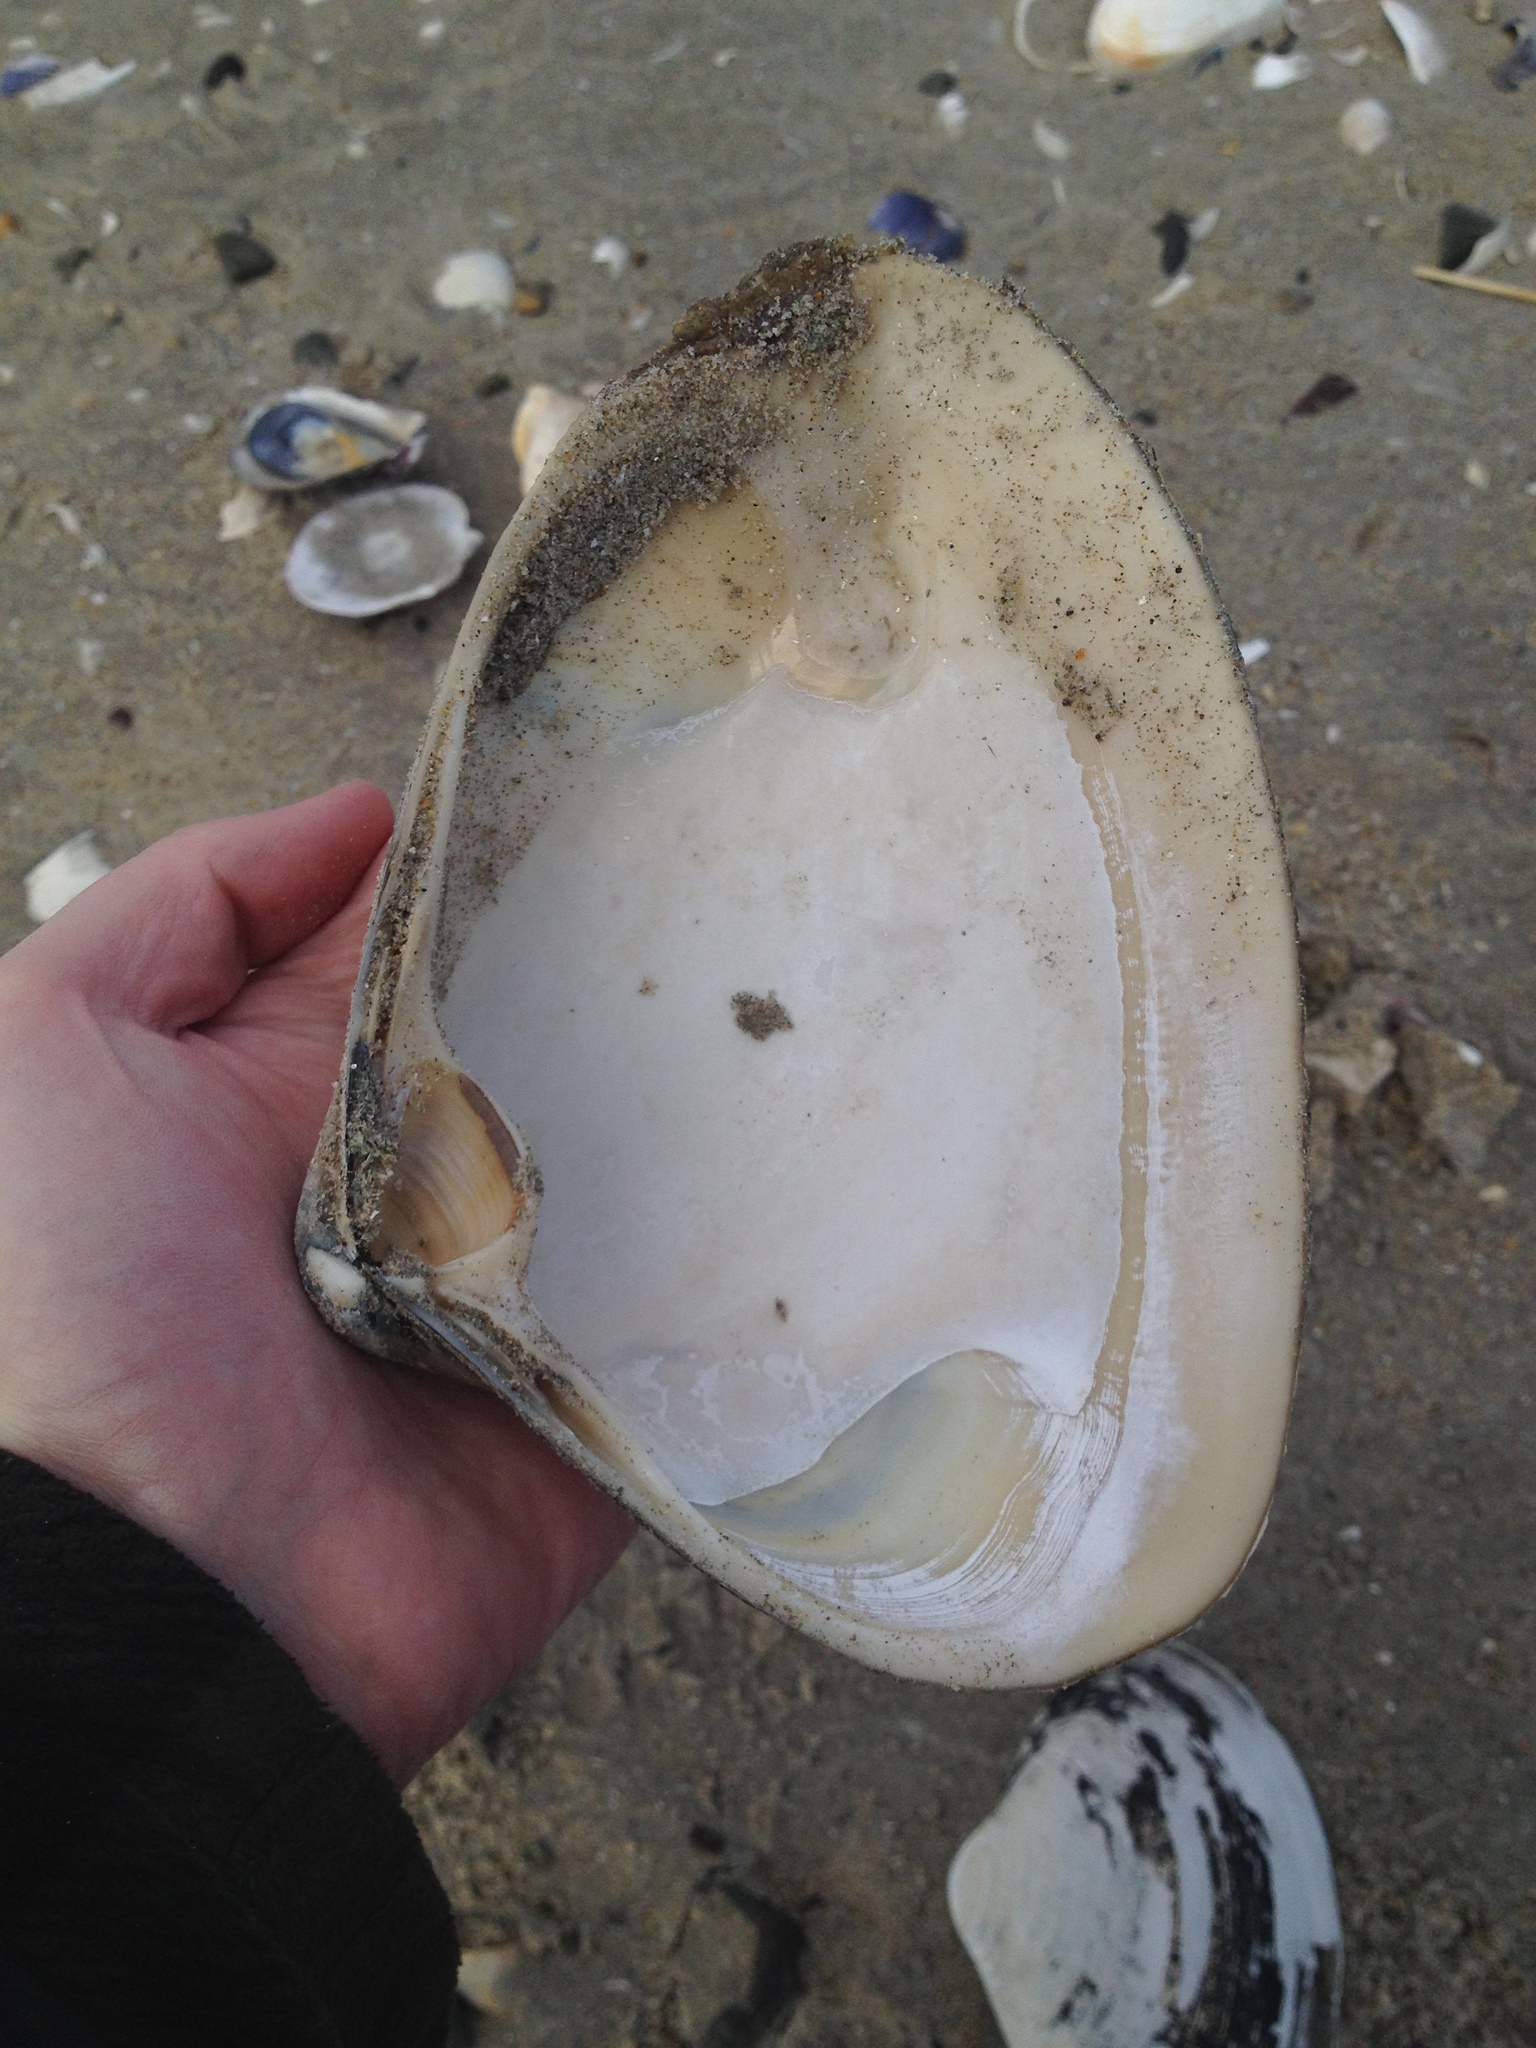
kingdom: Animalia
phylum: Mollusca
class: Bivalvia
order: Venerida
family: Mactridae
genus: Spisula
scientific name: Spisula solidissima
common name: Atlantic surf clam
